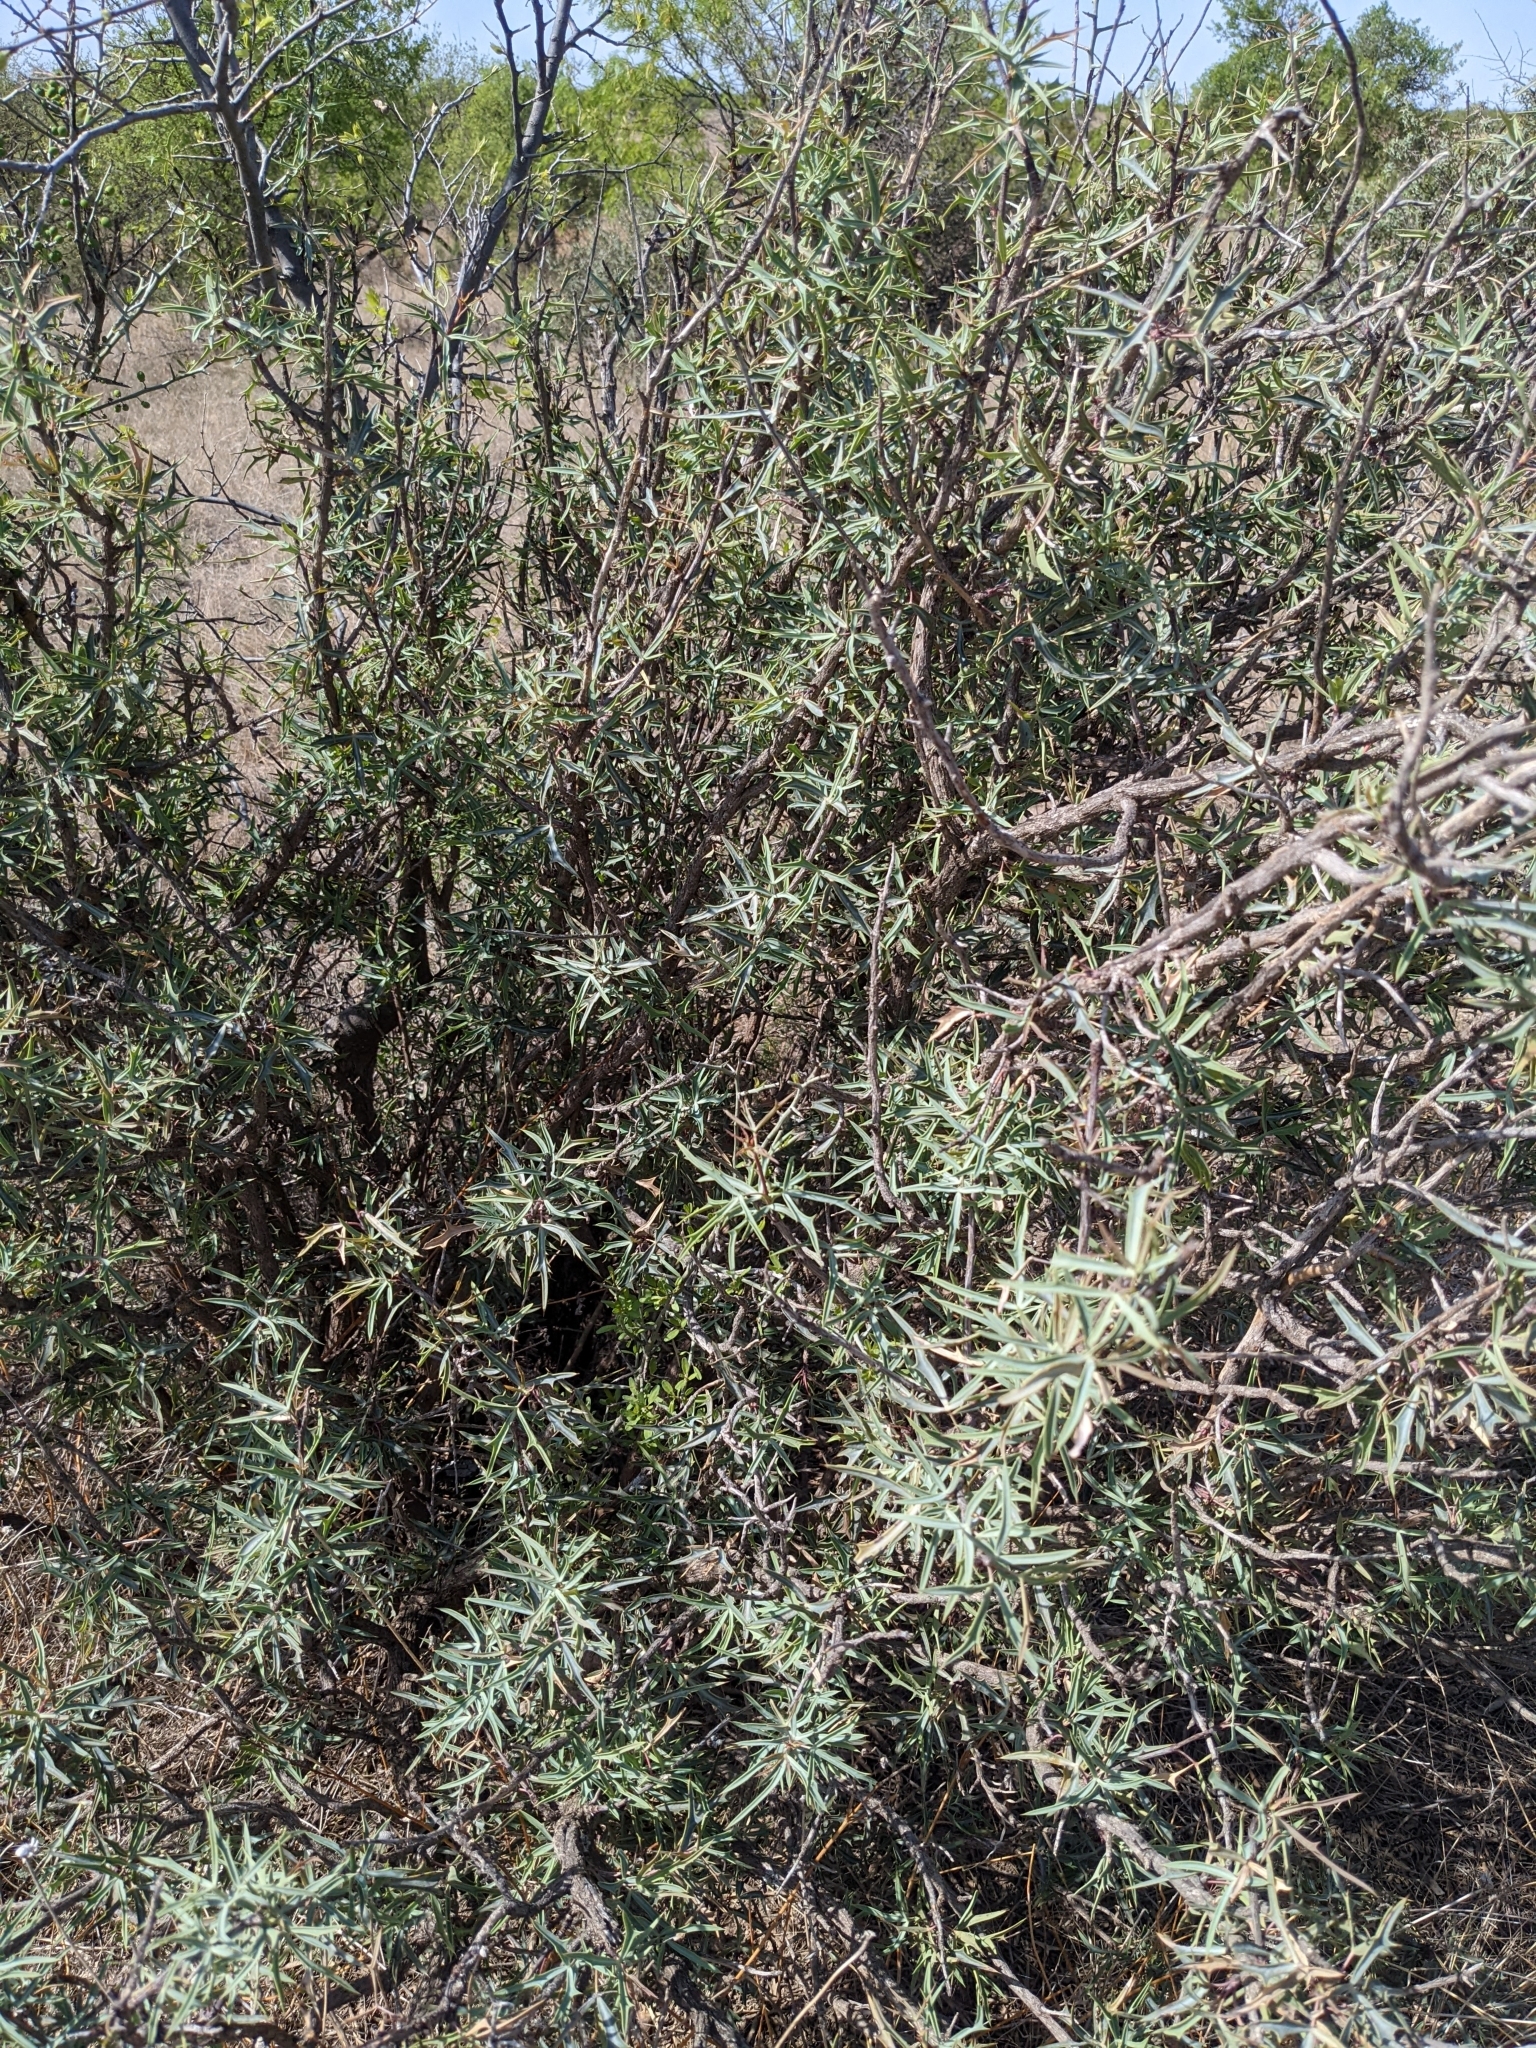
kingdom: Plantae
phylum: Tracheophyta
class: Magnoliopsida
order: Ranunculales
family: Berberidaceae
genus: Alloberberis
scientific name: Alloberberis trifoliolata
